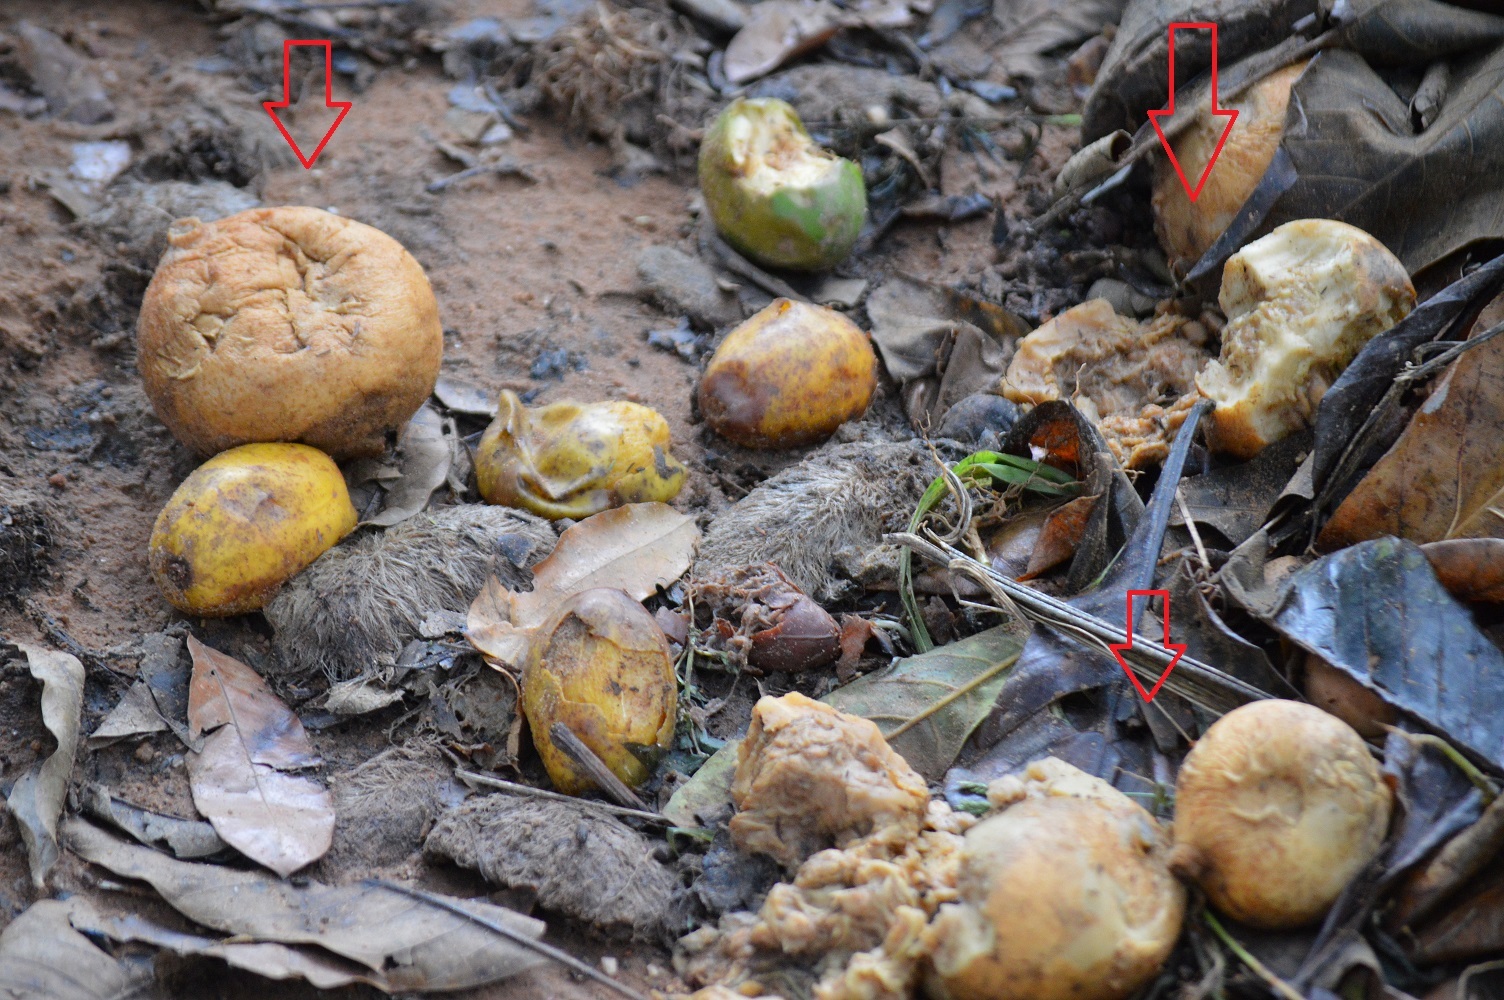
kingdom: Plantae
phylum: Tracheophyta
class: Magnoliopsida
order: Gentianales
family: Rubiaceae
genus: Genipa
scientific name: Genipa americana
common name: Genipap
